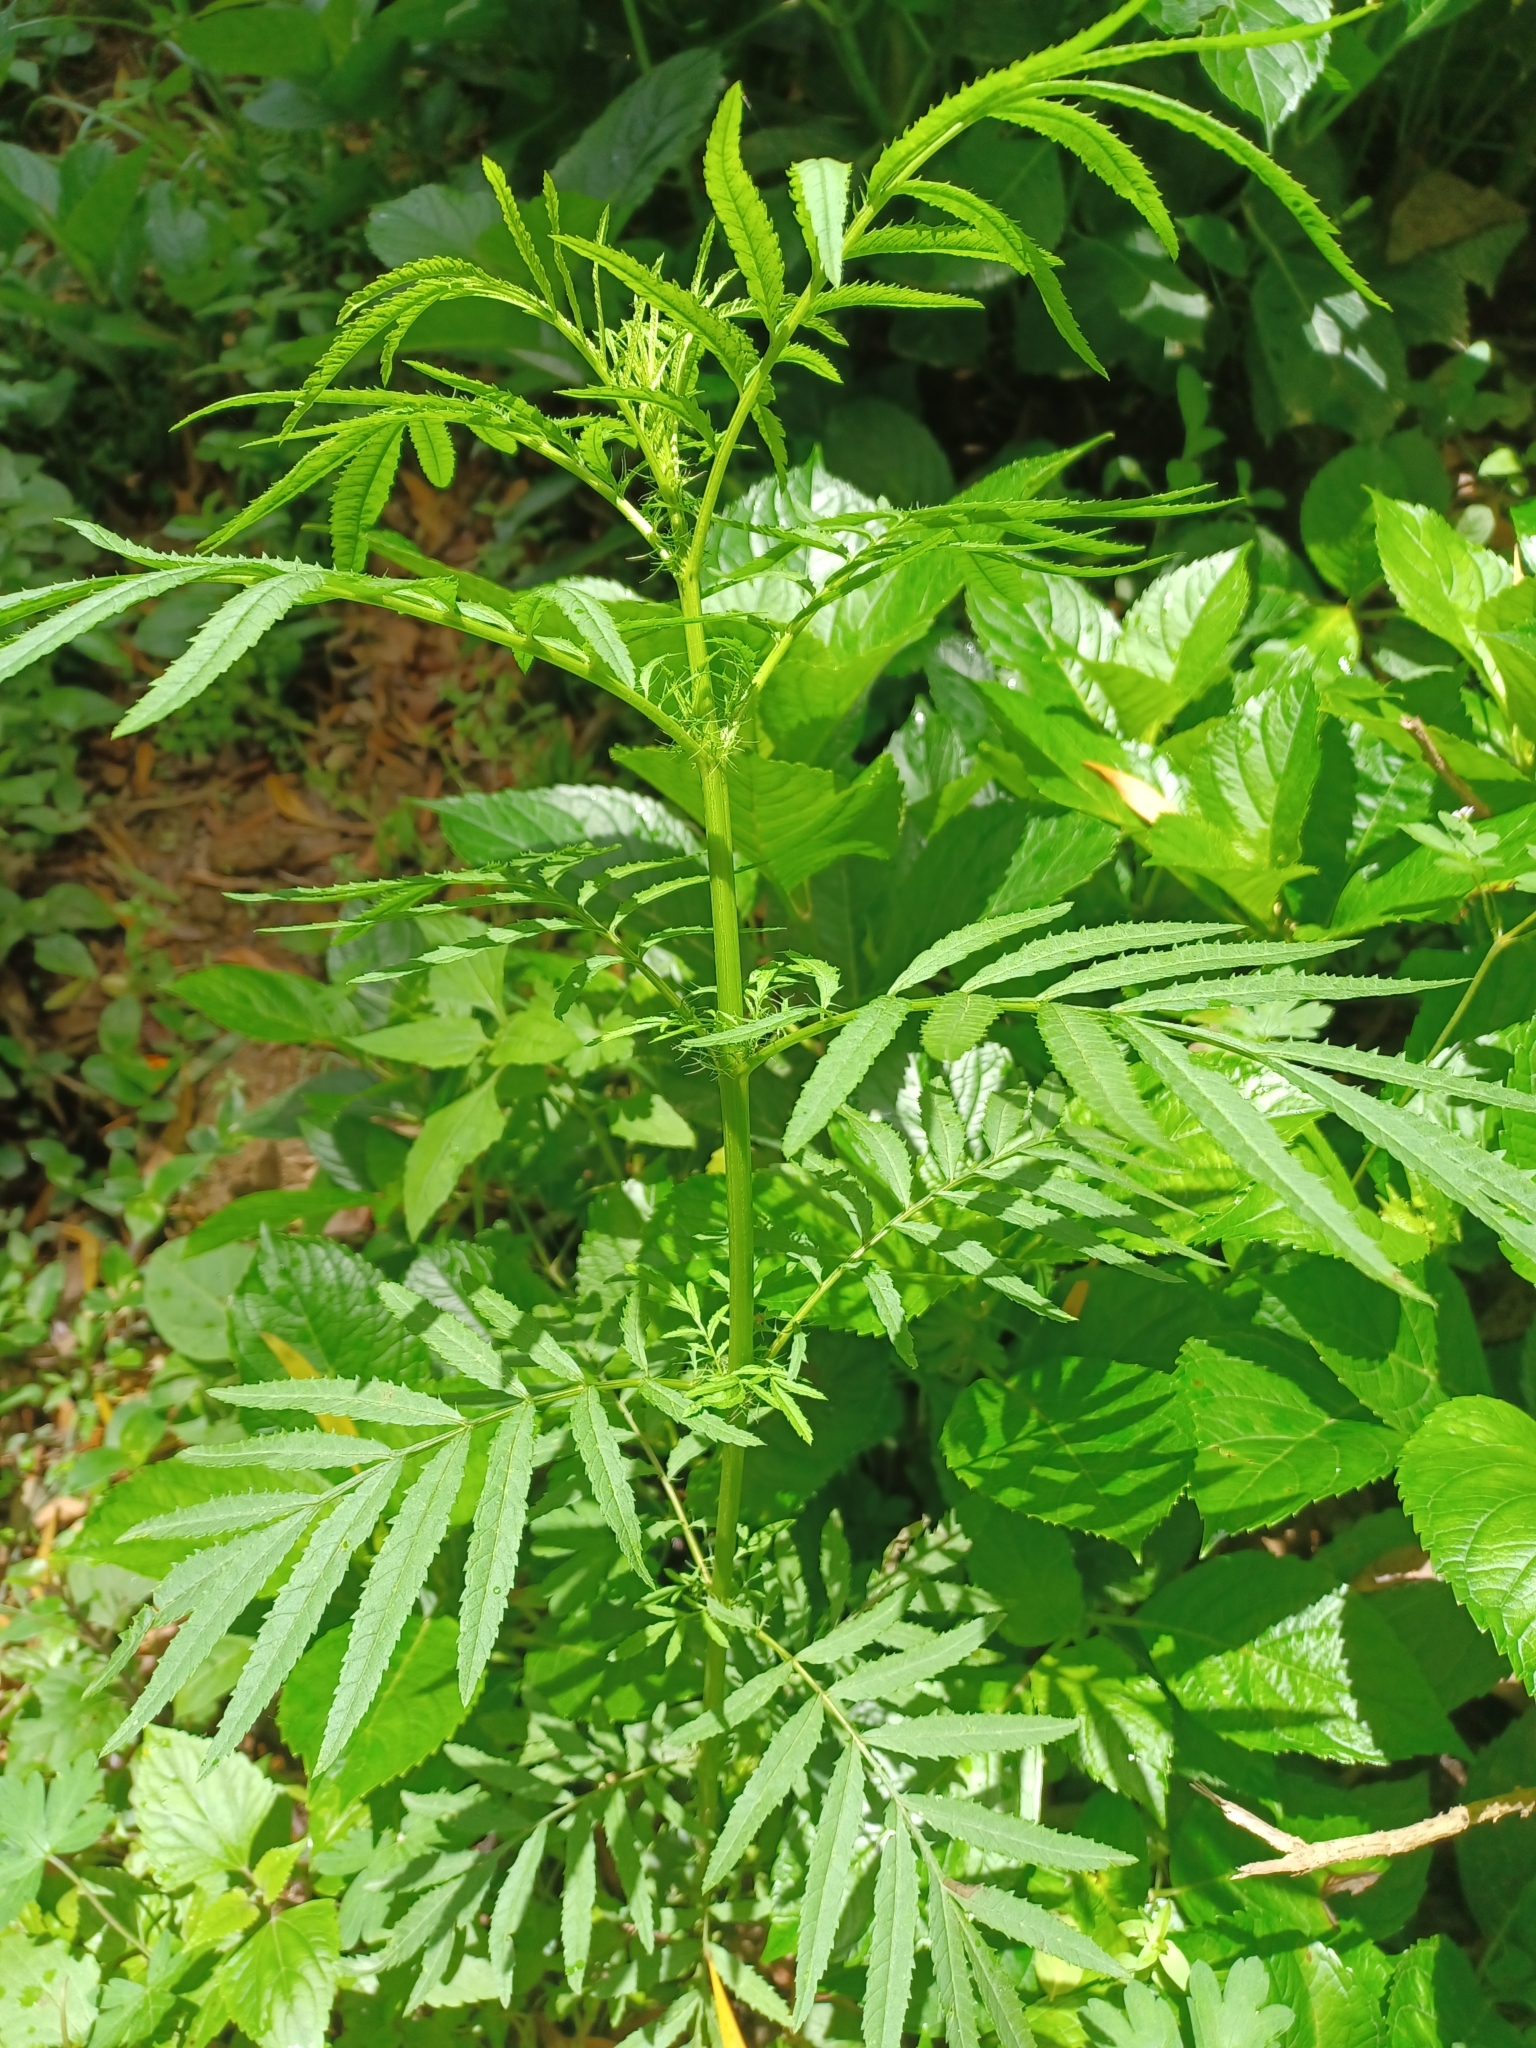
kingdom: Plantae
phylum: Tracheophyta
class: Magnoliopsida
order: Asterales
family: Asteraceae
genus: Tagetes
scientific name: Tagetes minuta
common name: Muster john henry
